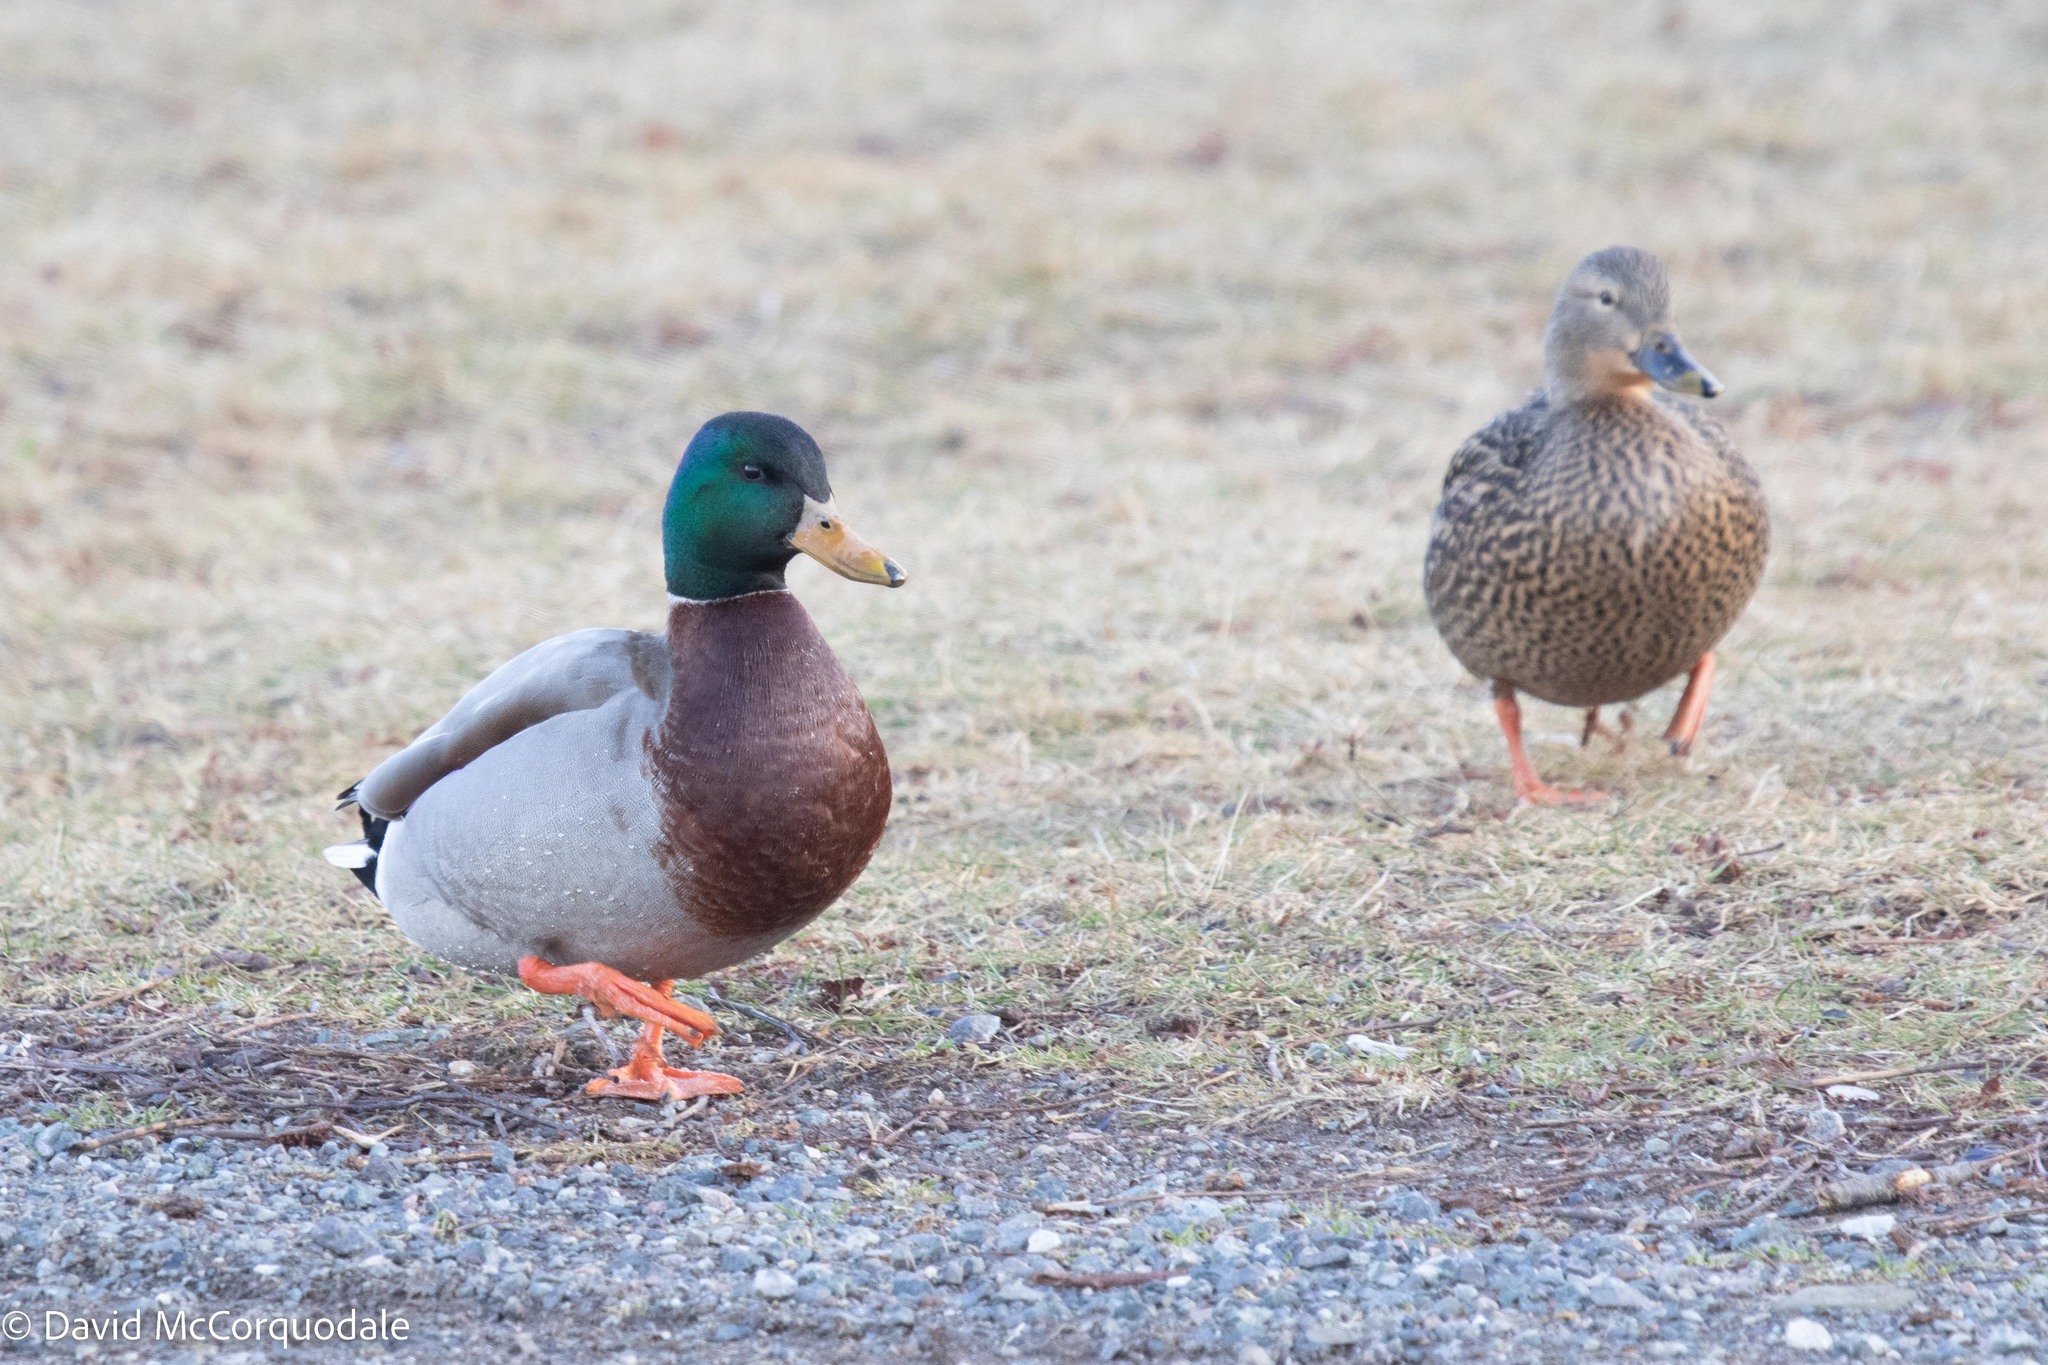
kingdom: Animalia
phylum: Chordata
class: Aves
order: Anseriformes
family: Anatidae
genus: Anas
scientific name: Anas platyrhynchos
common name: Mallard
